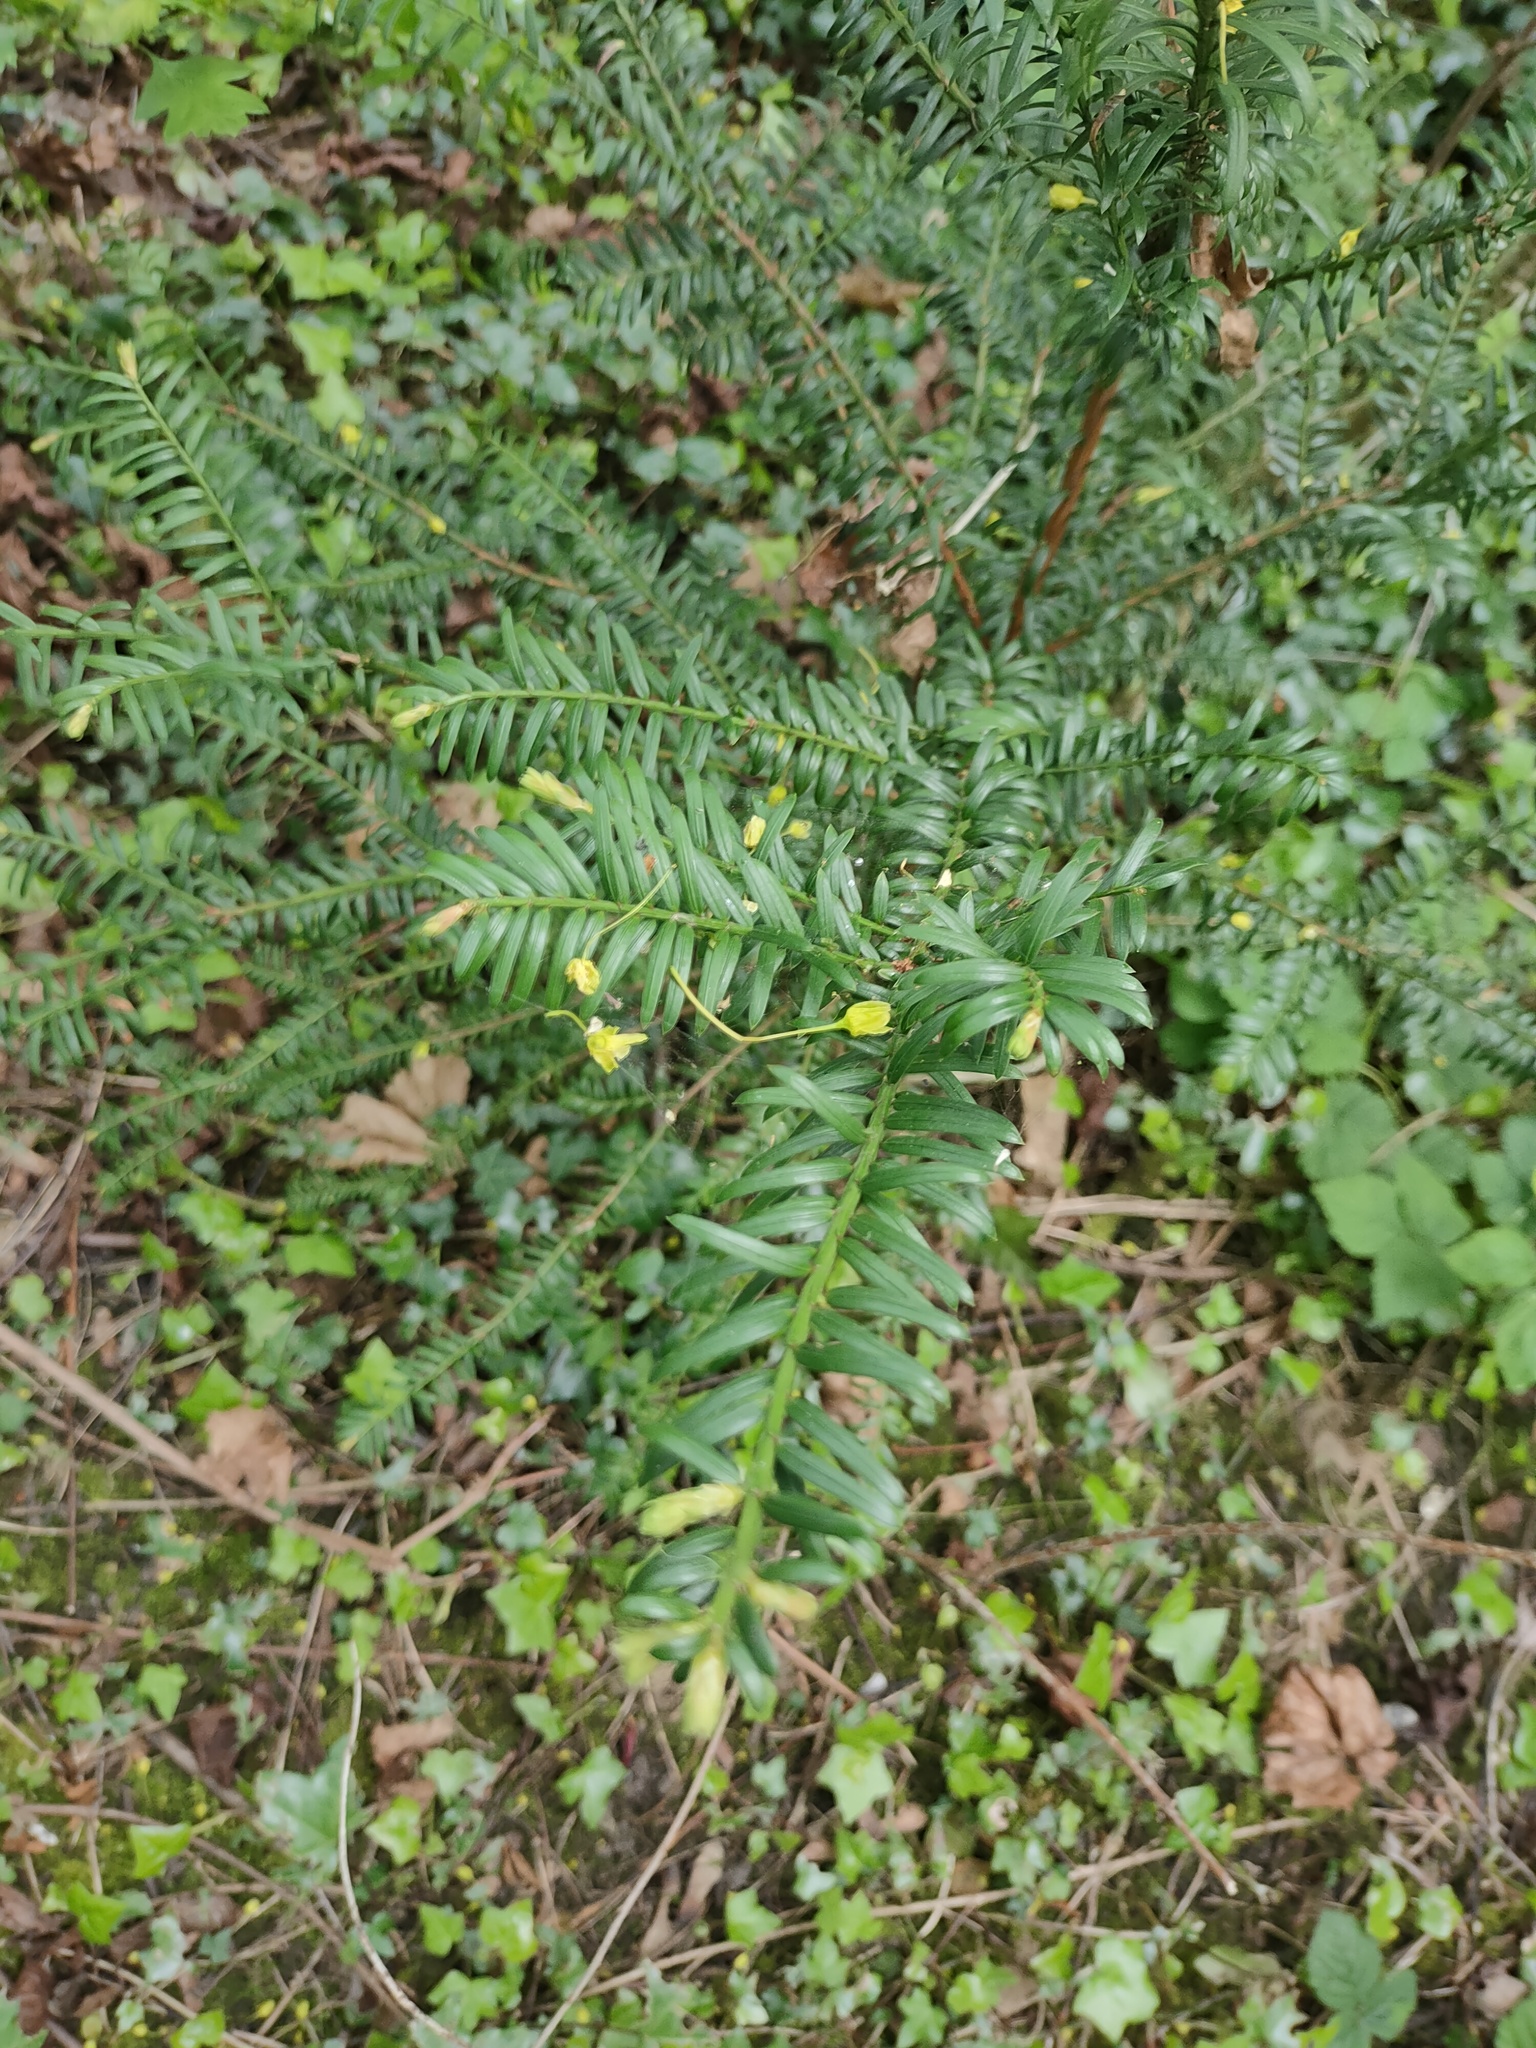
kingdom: Plantae
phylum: Tracheophyta
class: Pinopsida
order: Pinales
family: Taxaceae
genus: Taxus
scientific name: Taxus baccata
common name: Yew
